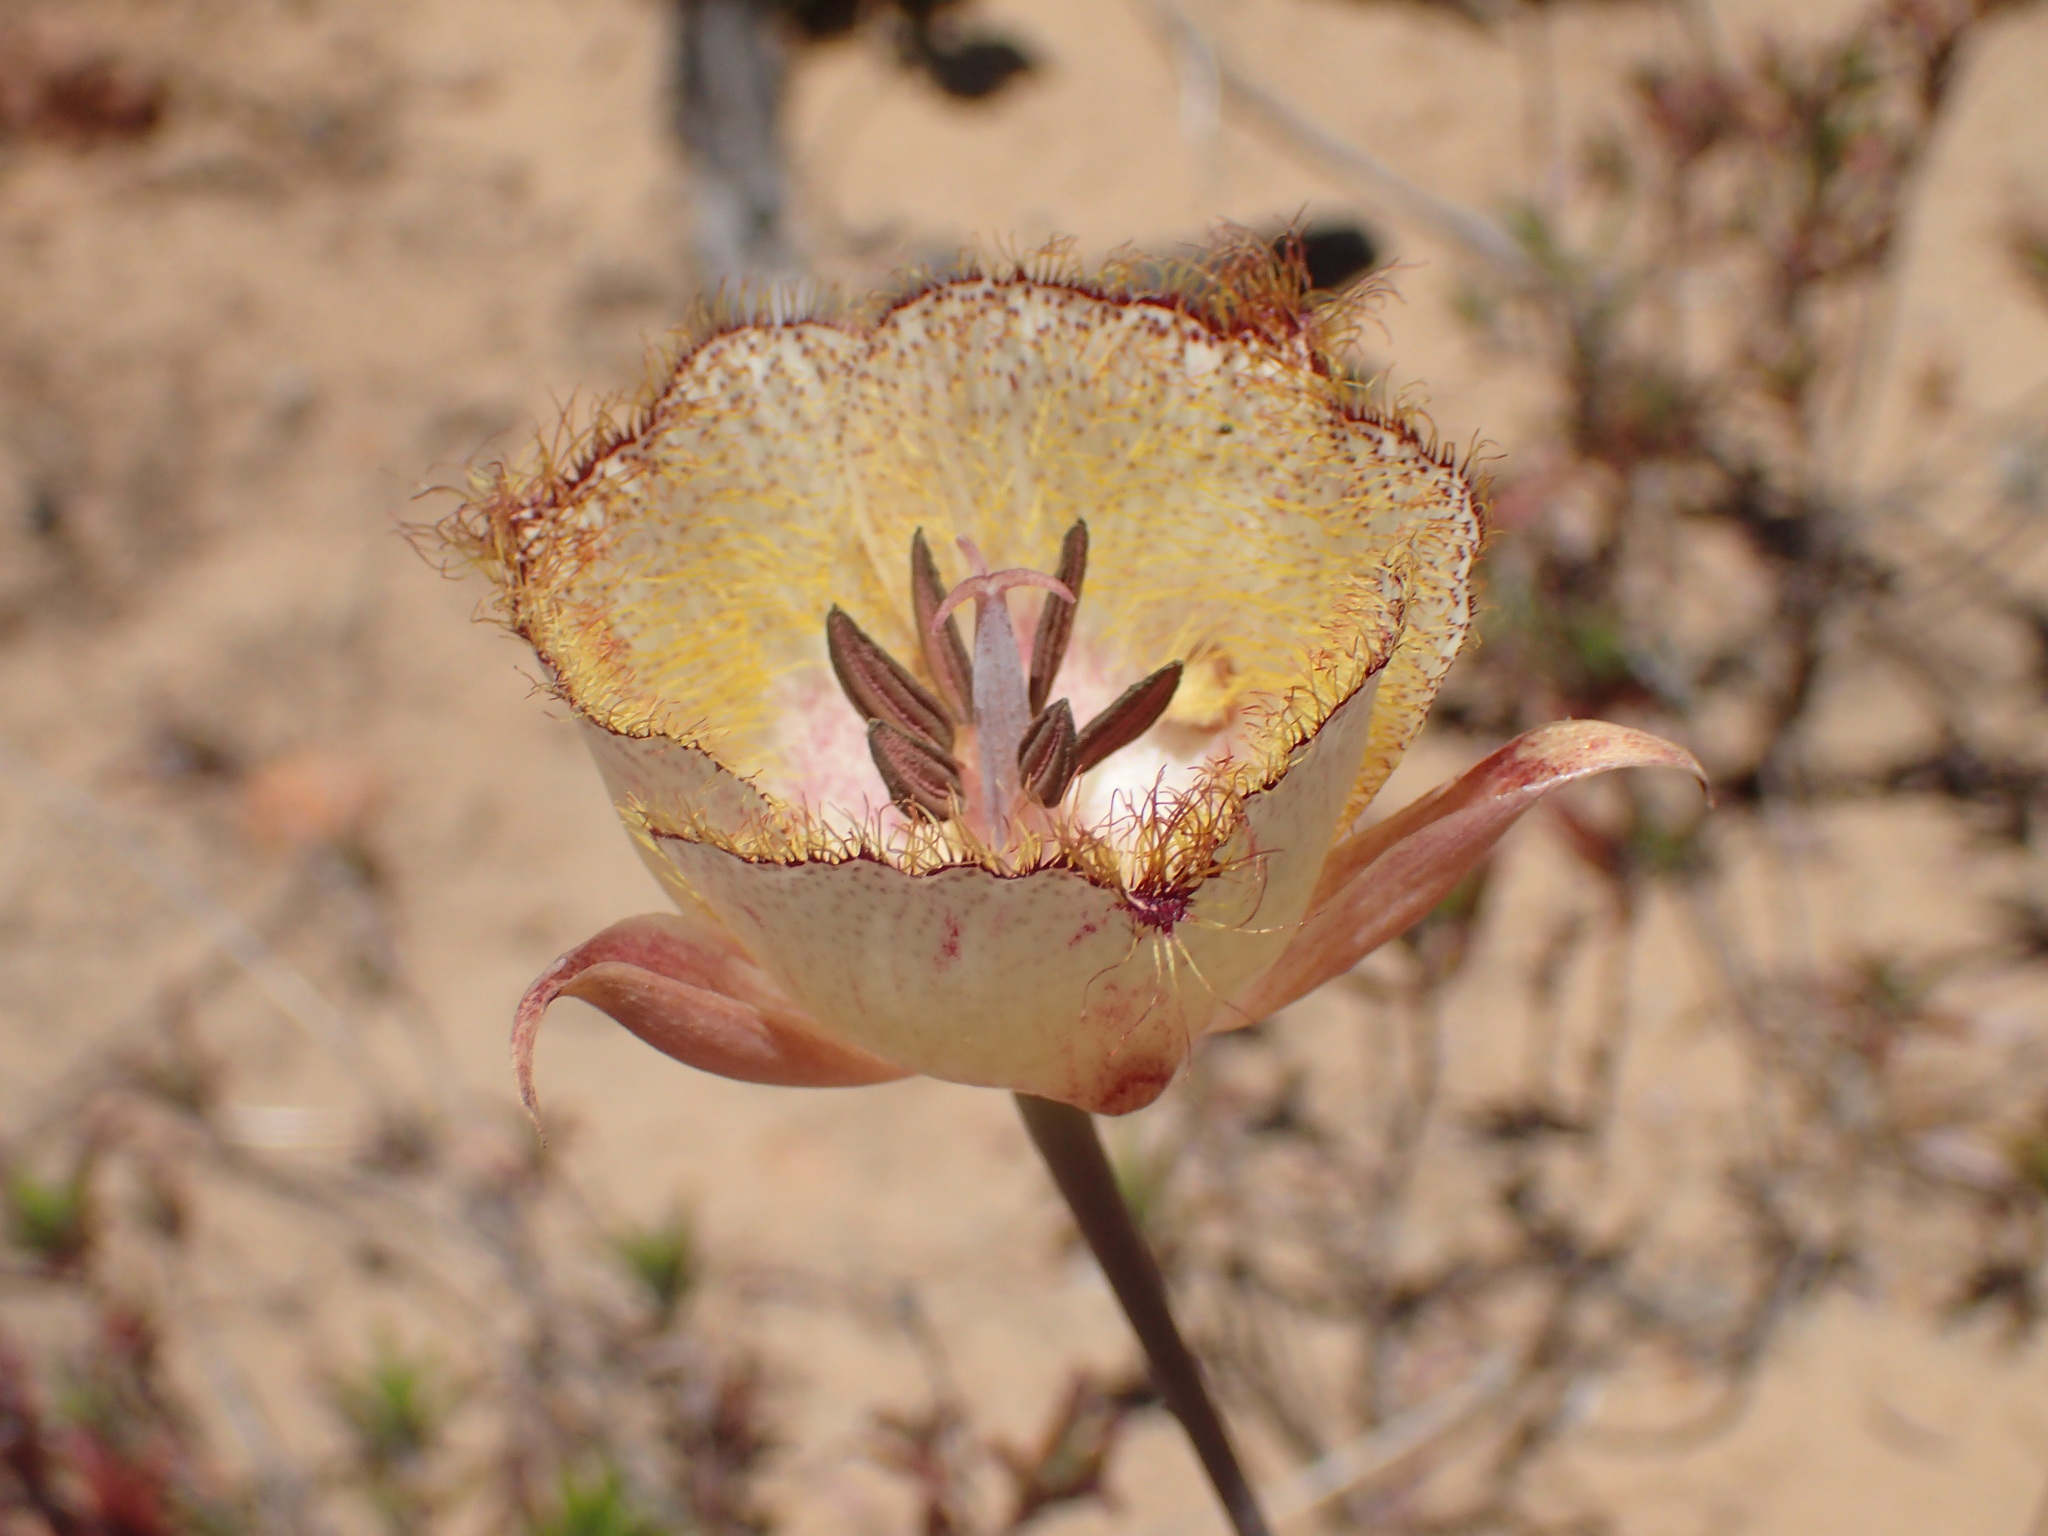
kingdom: Plantae
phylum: Tracheophyta
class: Liliopsida
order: Liliales
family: Liliaceae
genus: Calochortus
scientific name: Calochortus fimbriatus
